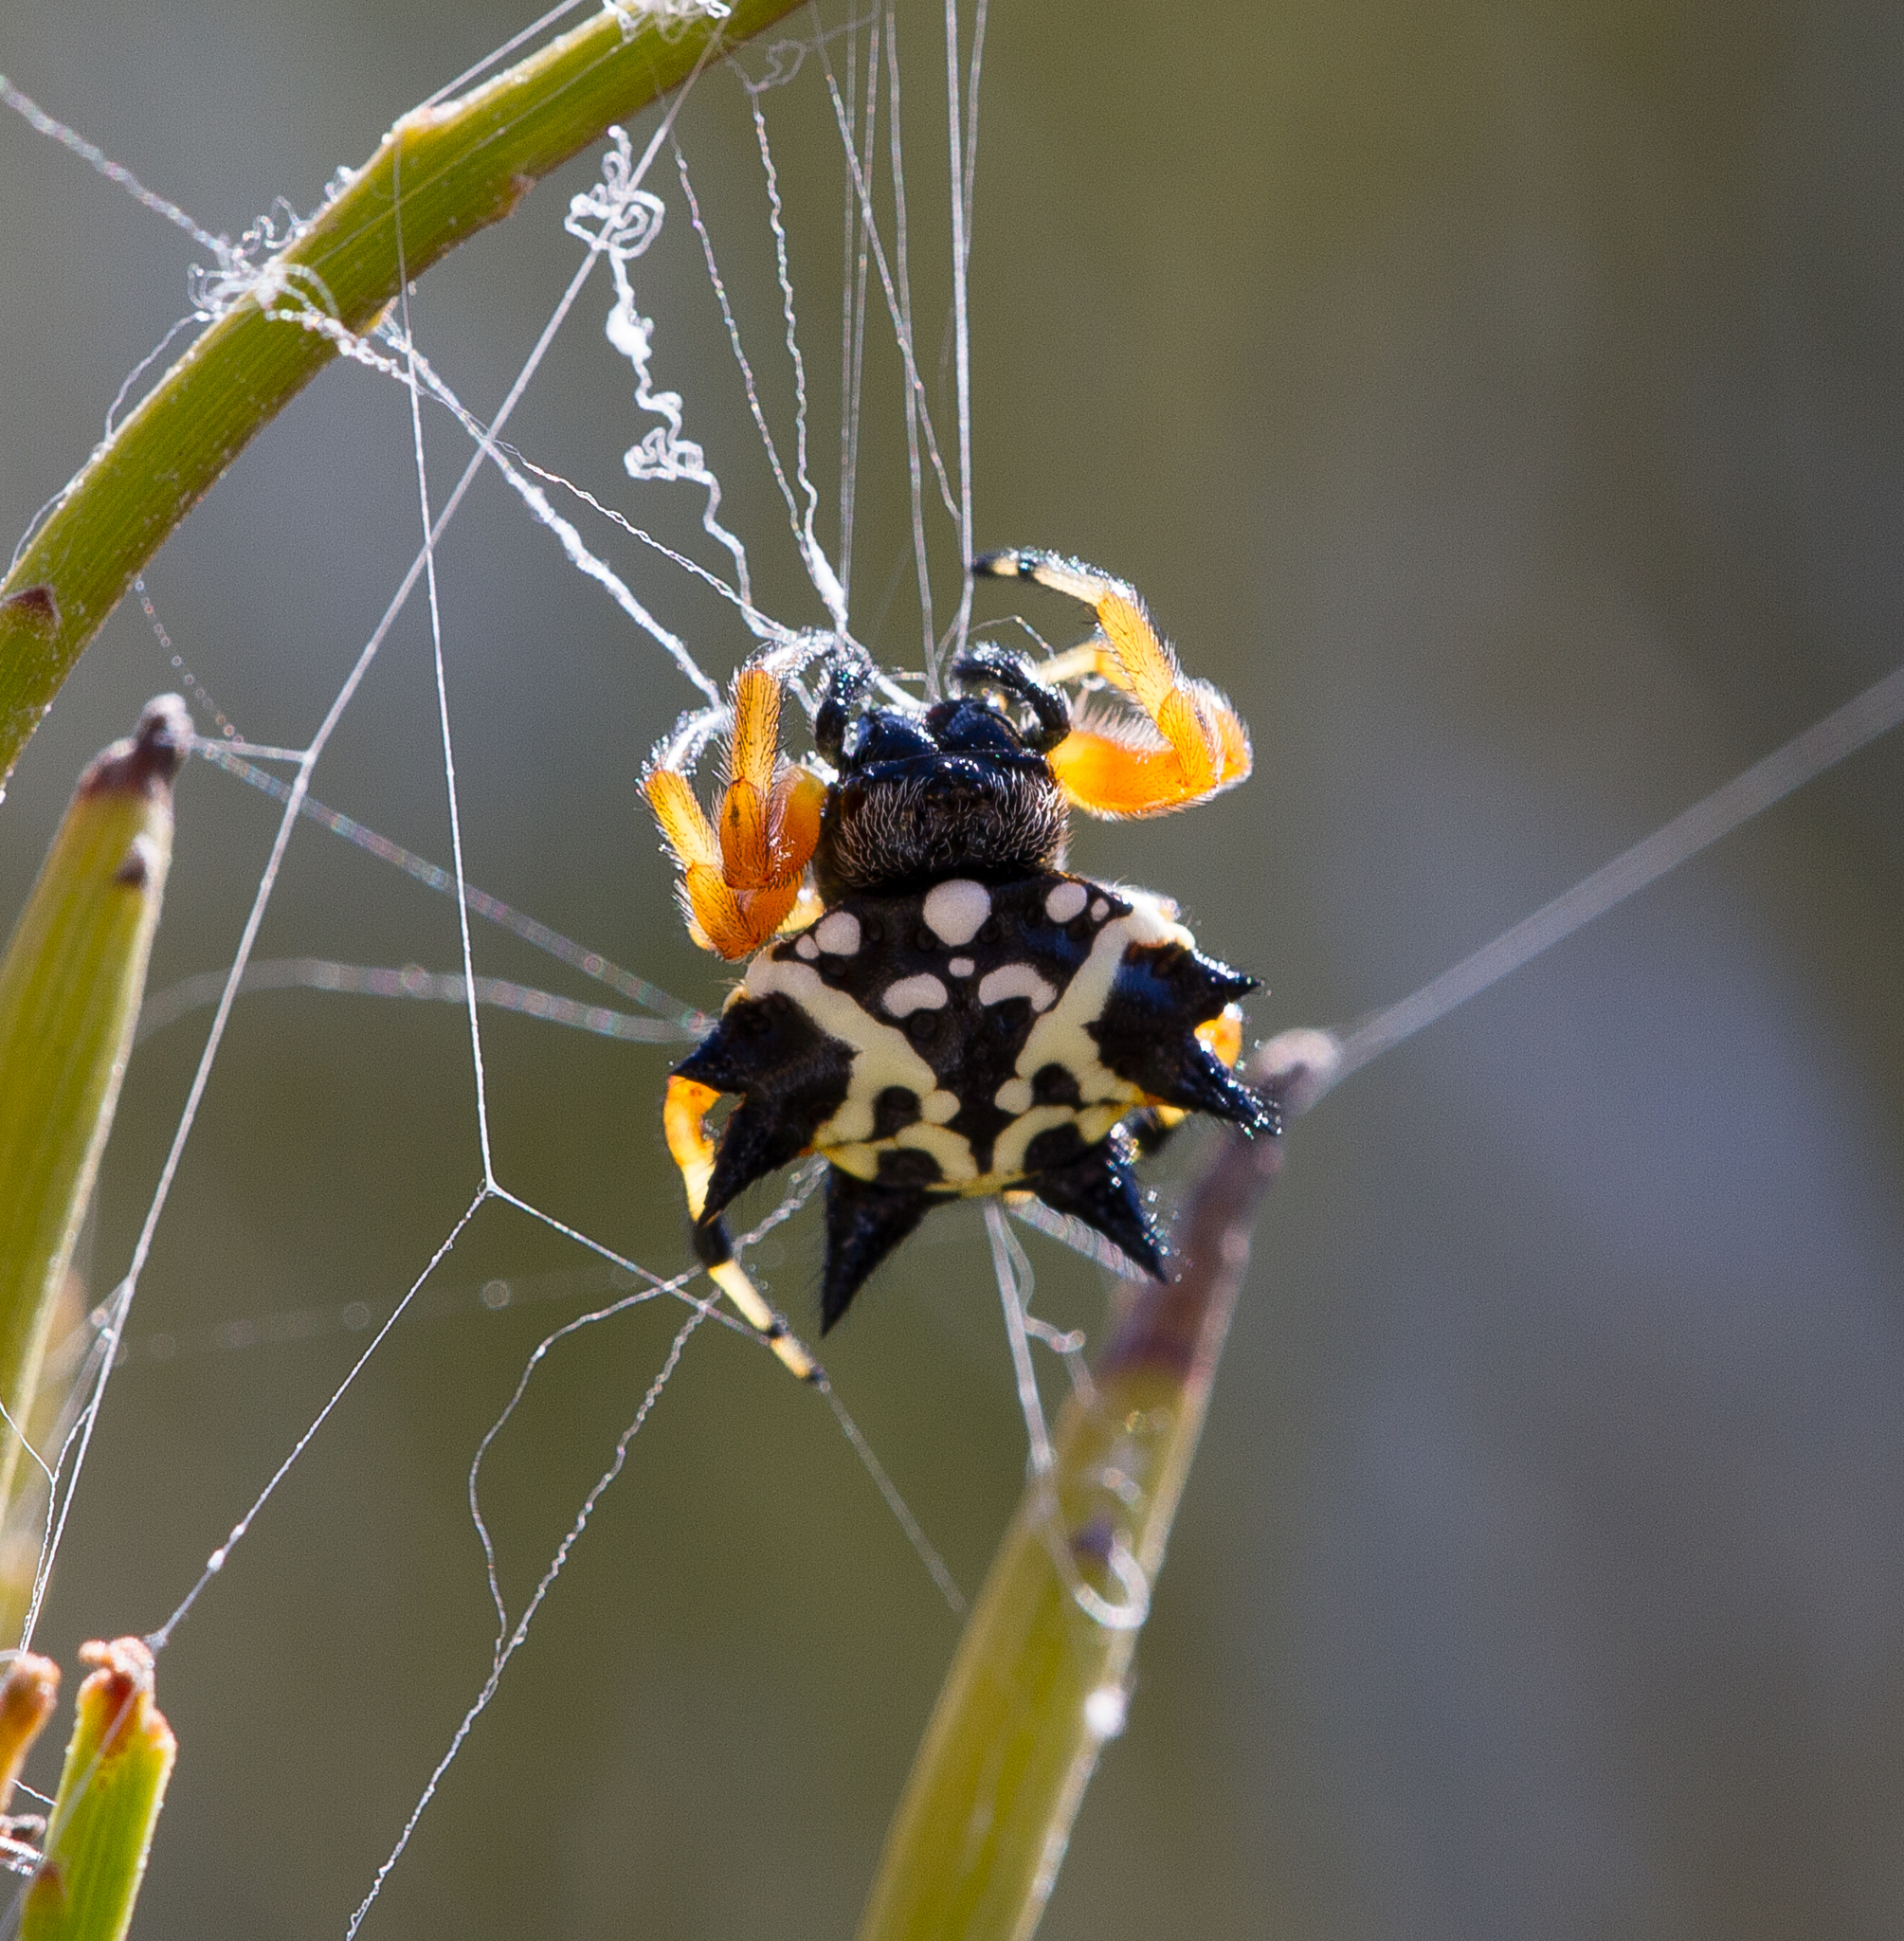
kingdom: Animalia
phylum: Arthropoda
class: Arachnida
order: Araneae
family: Araneidae
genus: Austracantha
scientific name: Austracantha minax
